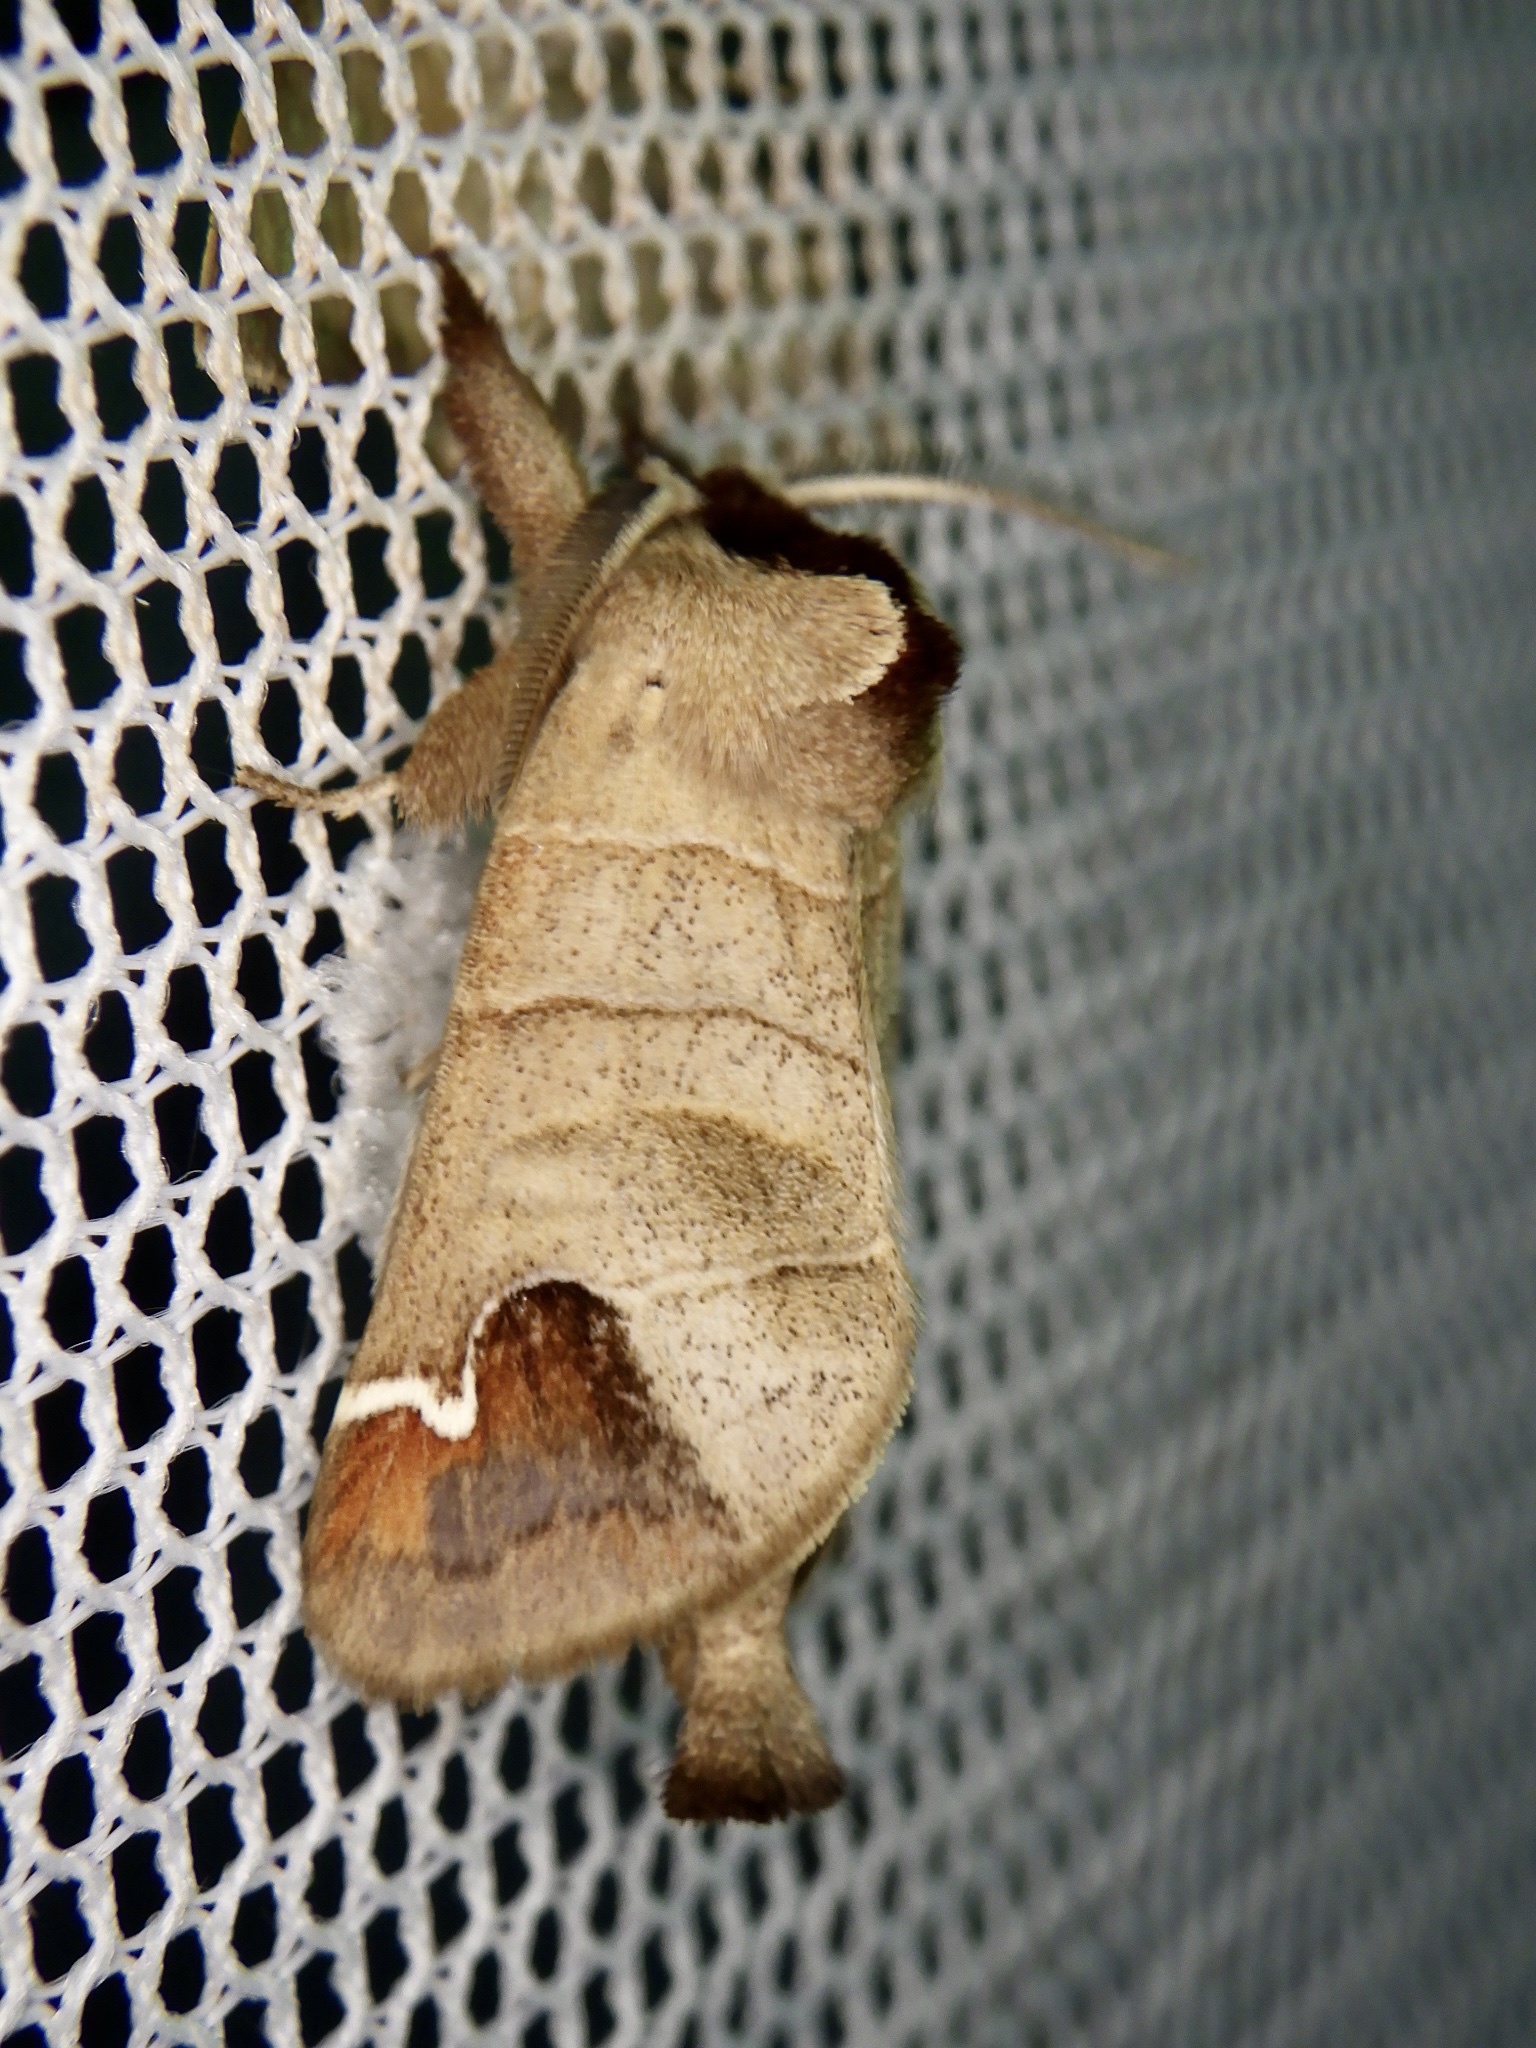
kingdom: Animalia
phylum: Arthropoda
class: Insecta
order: Lepidoptera
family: Notodontidae
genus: Clostera
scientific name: Clostera albosigma
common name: Sigmoid prominent
